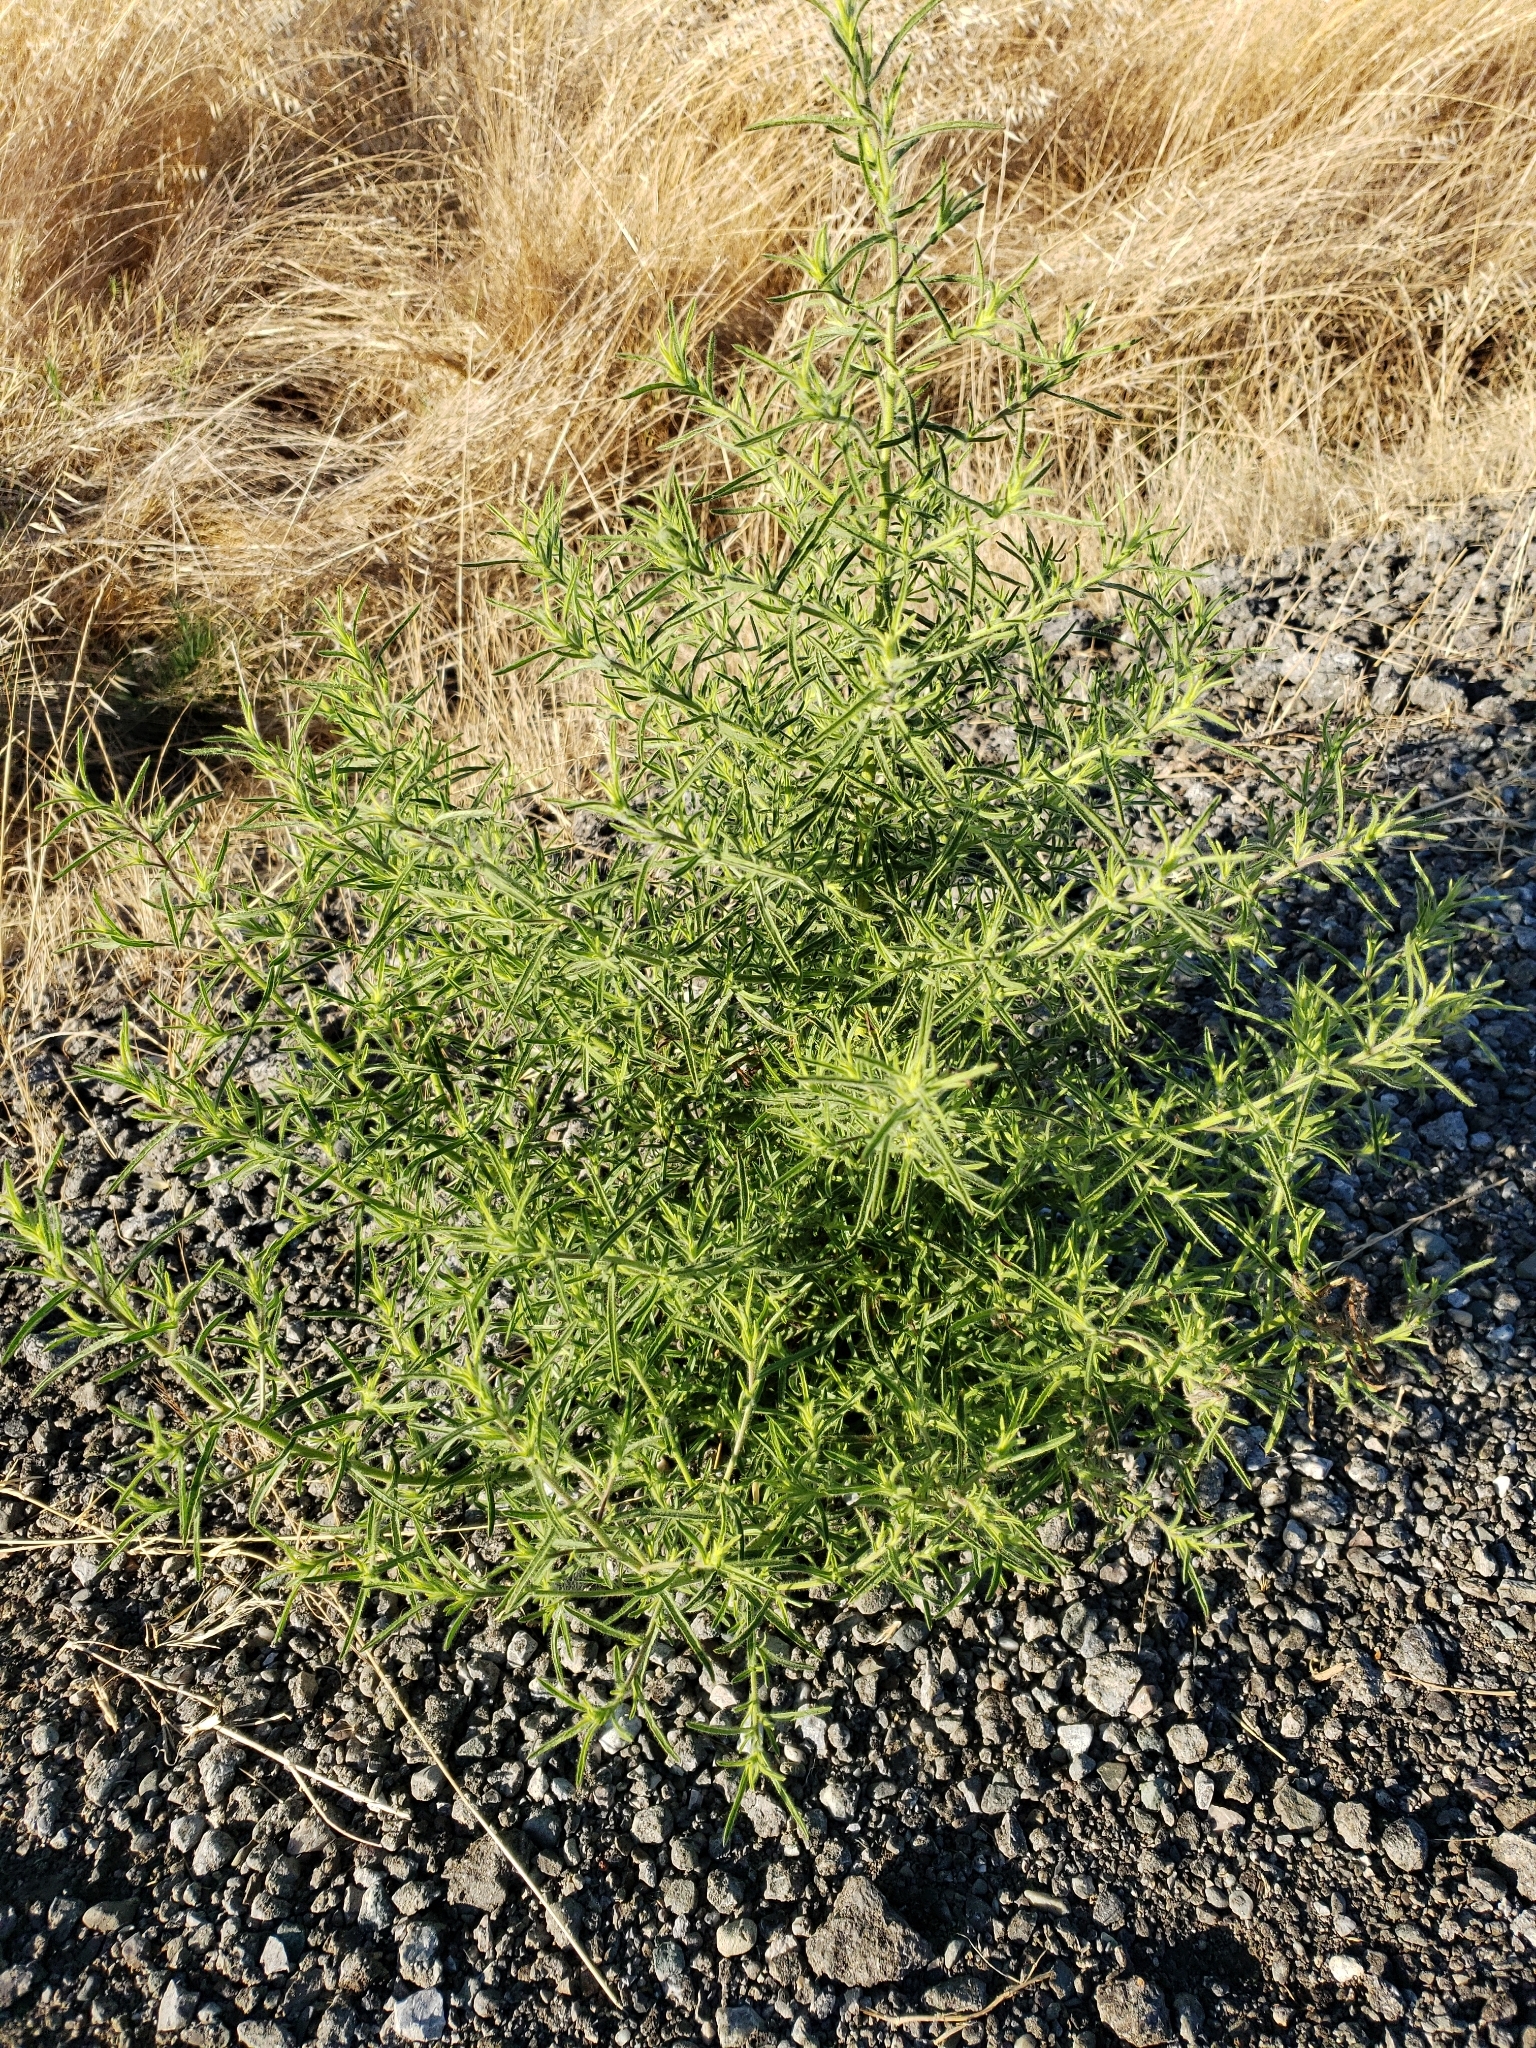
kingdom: Plantae
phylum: Tracheophyta
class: Magnoliopsida
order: Asterales
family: Asteraceae
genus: Dittrichia
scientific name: Dittrichia graveolens
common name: Stinking fleabane
